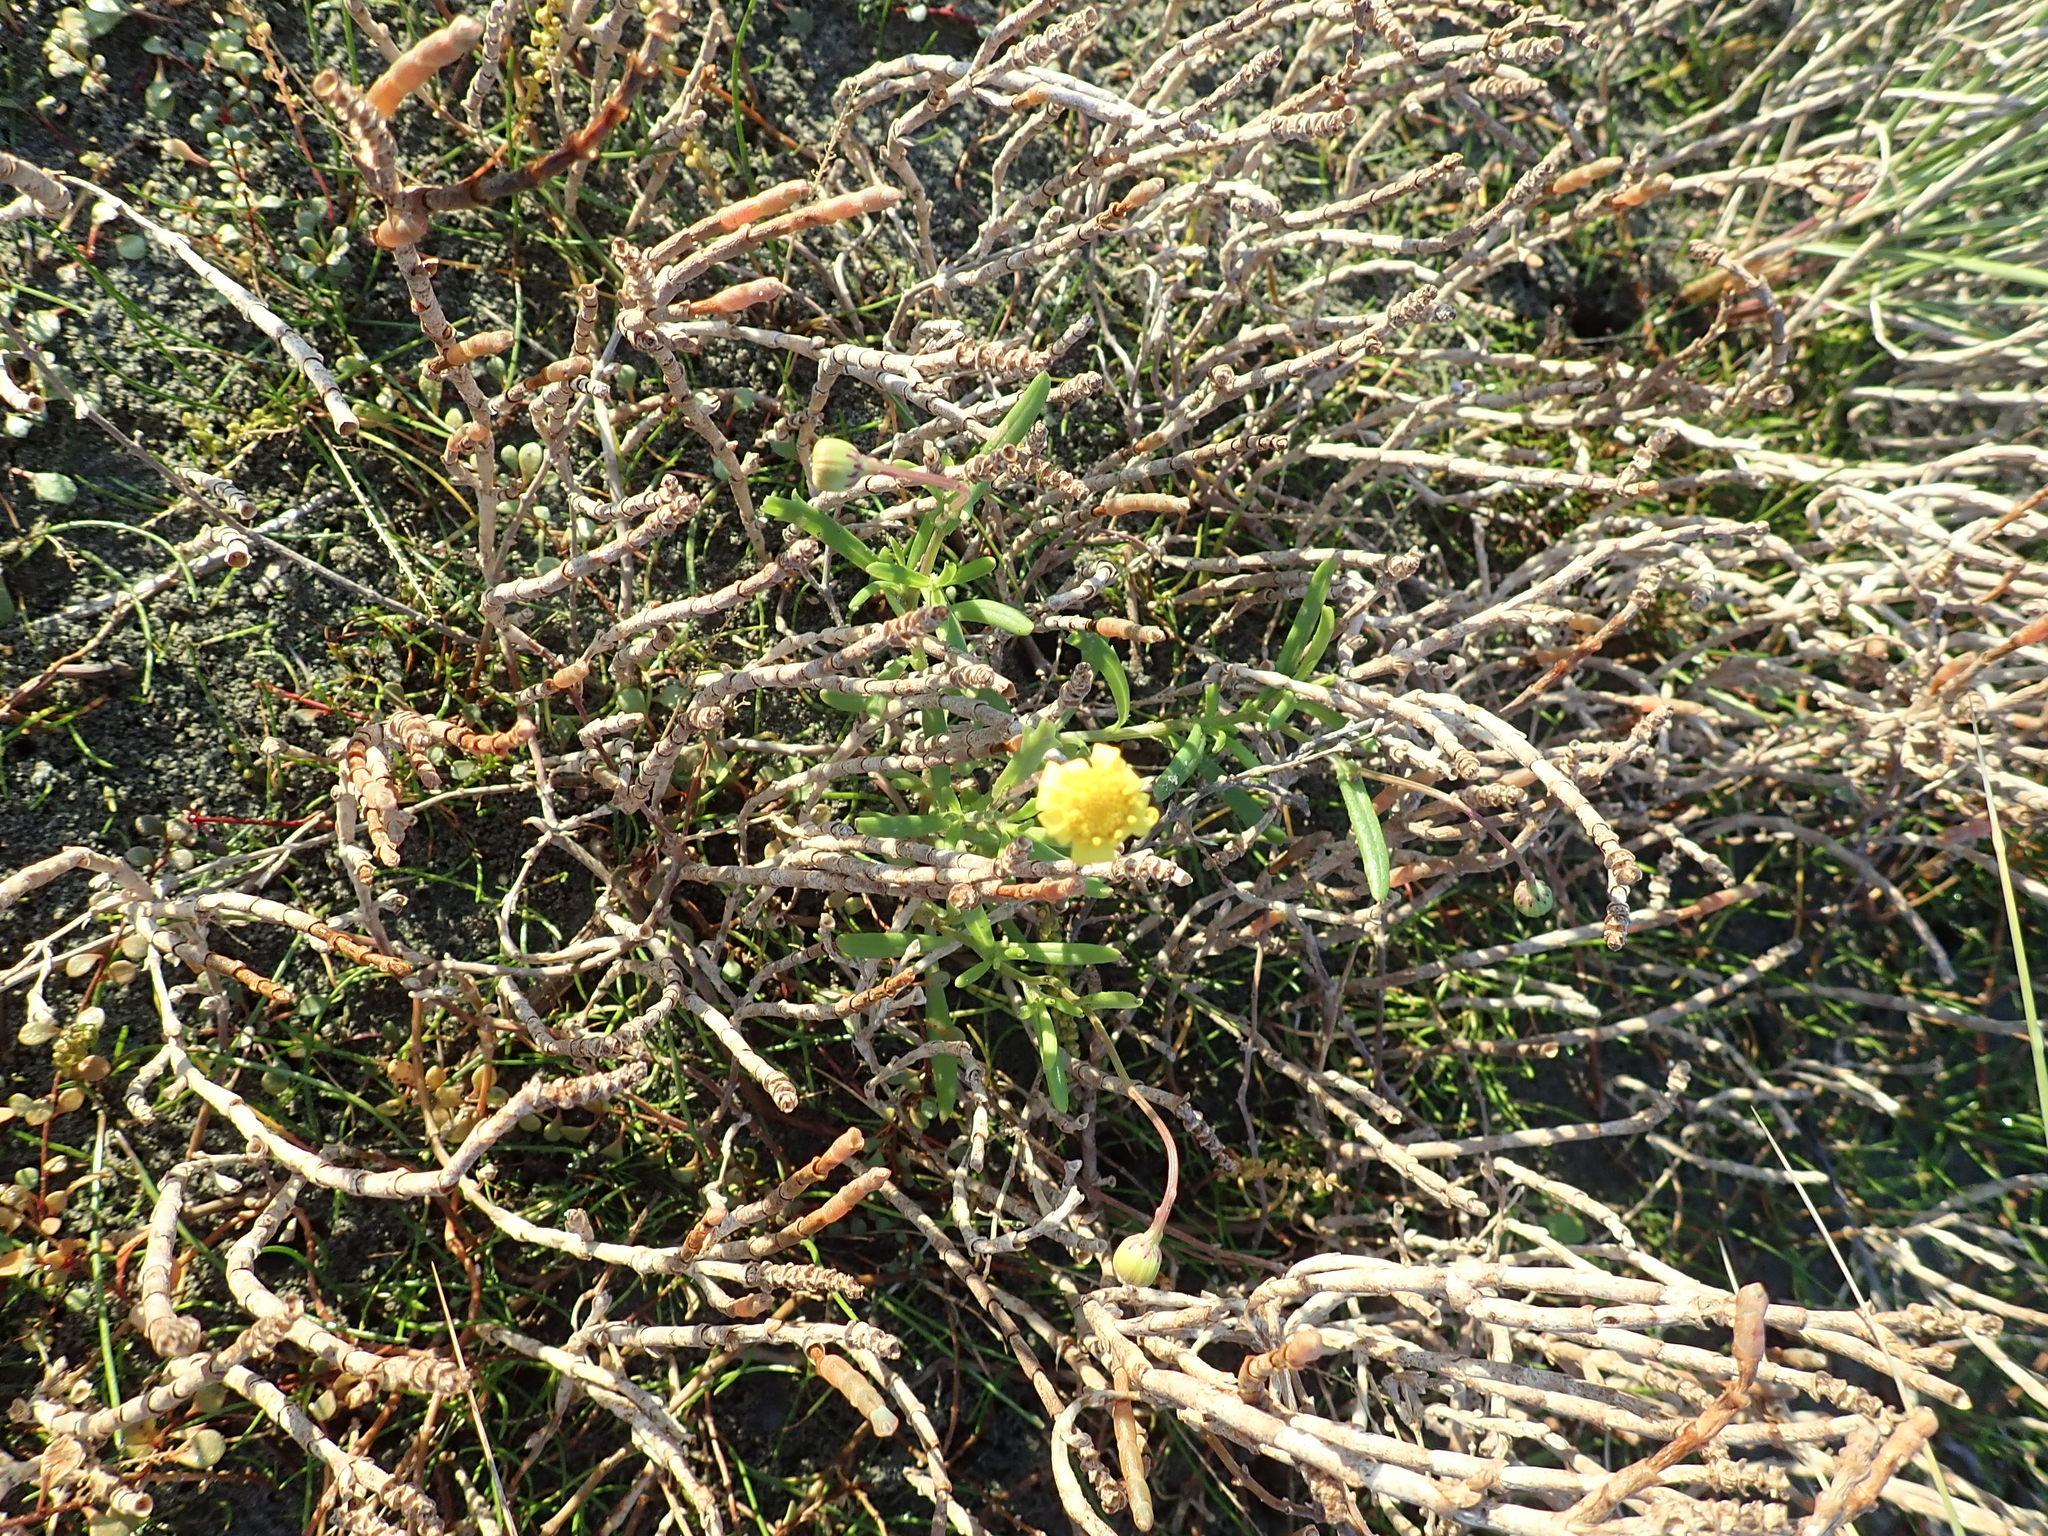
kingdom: Plantae
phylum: Tracheophyta
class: Magnoliopsida
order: Asterales
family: Asteraceae
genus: Senecio
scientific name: Senecio skirrhodon
